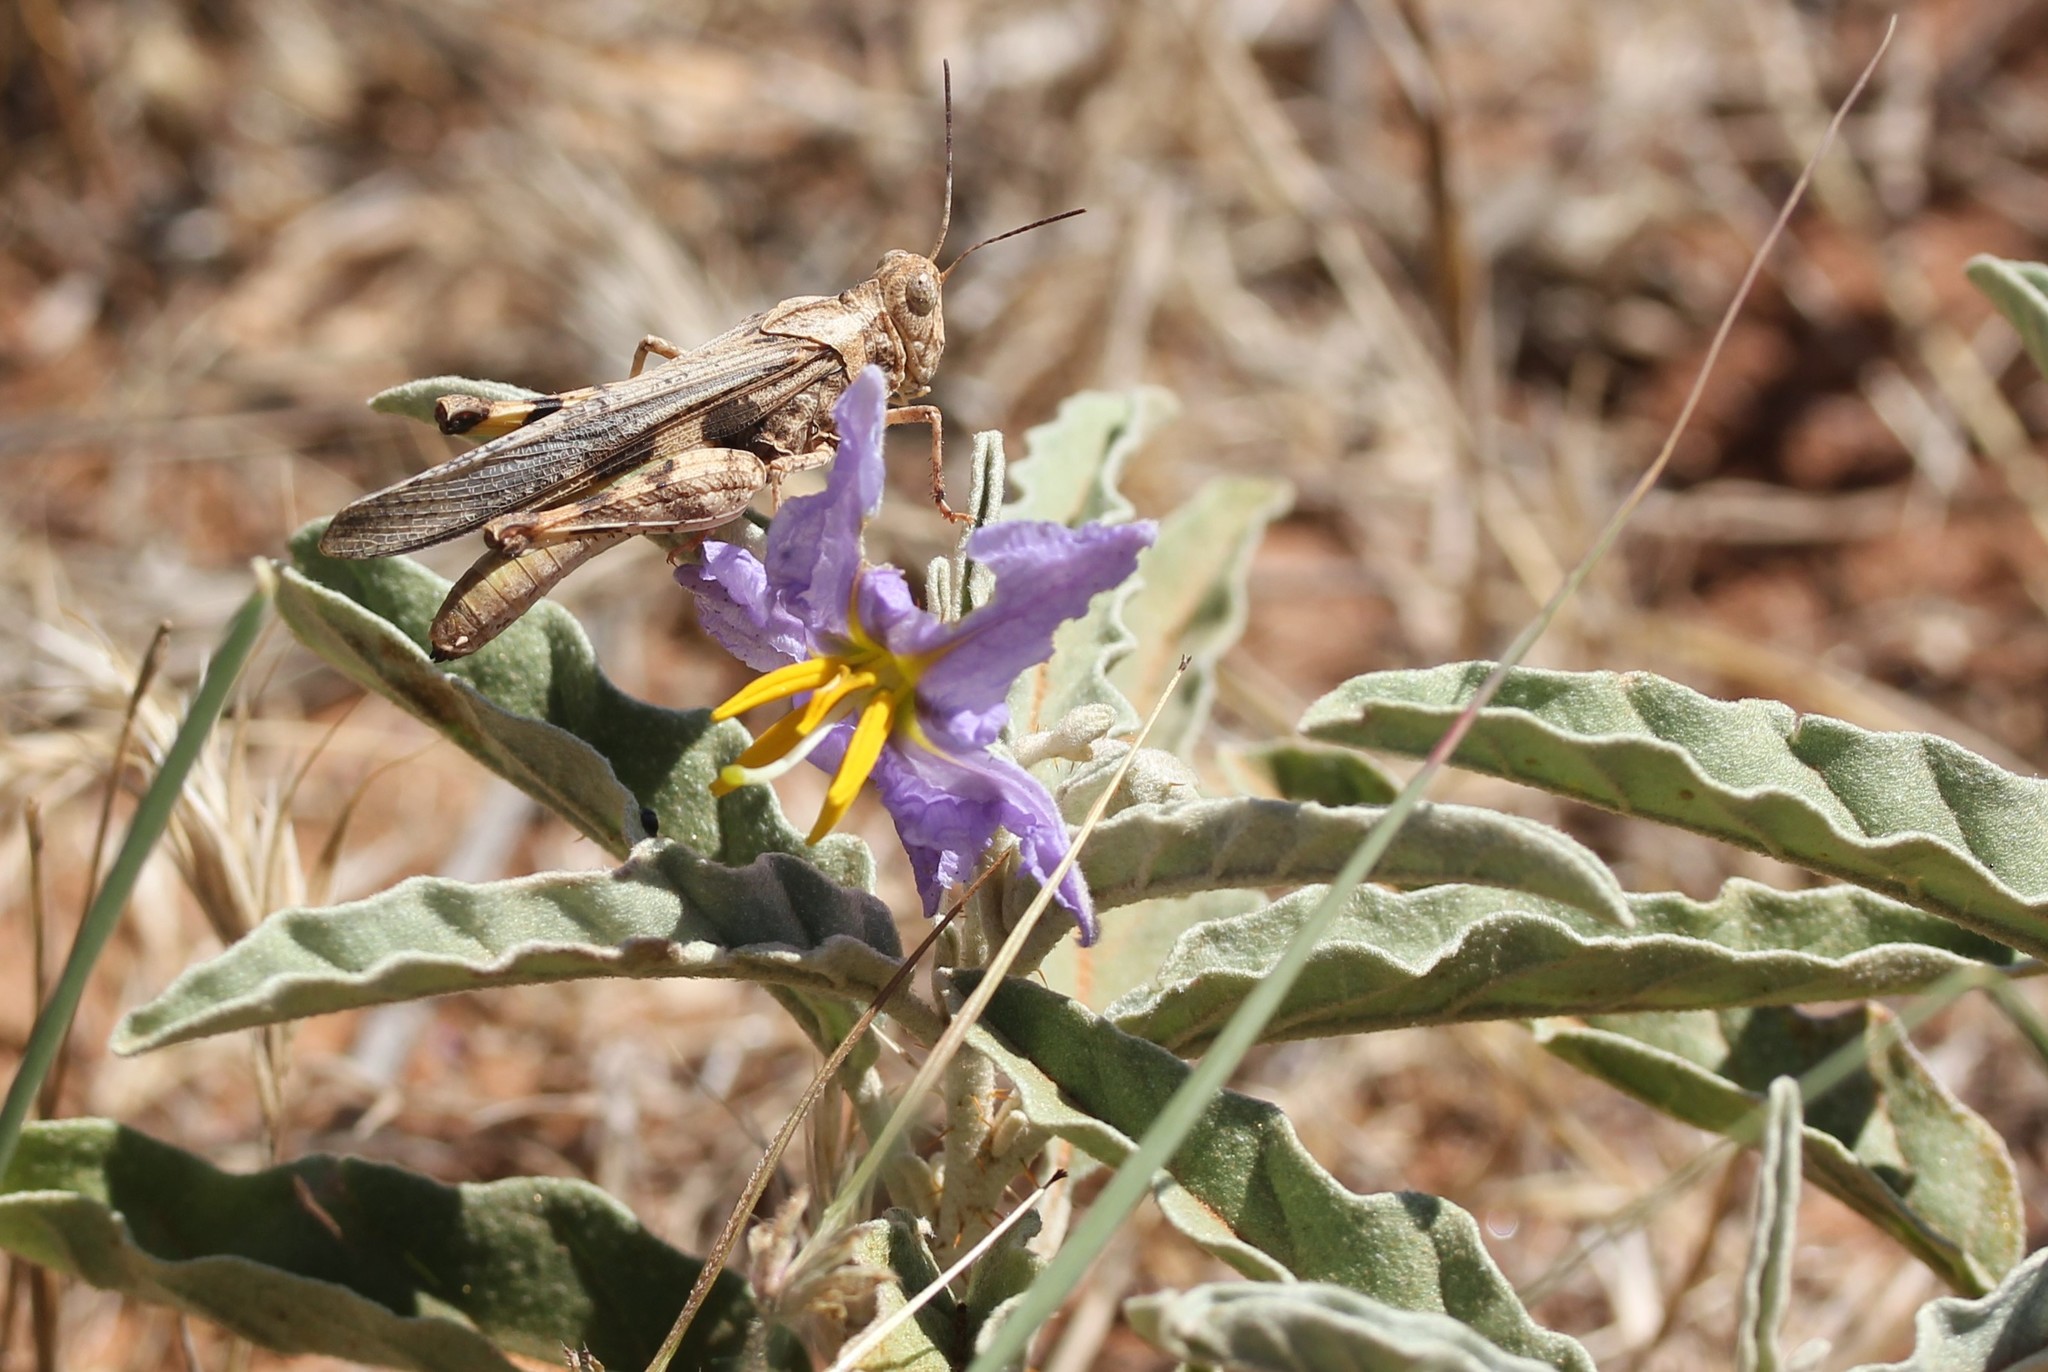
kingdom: Plantae
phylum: Tracheophyta
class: Magnoliopsida
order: Solanales
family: Solanaceae
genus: Solanum
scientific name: Solanum elaeagnifolium
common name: Silverleaf nightshade
